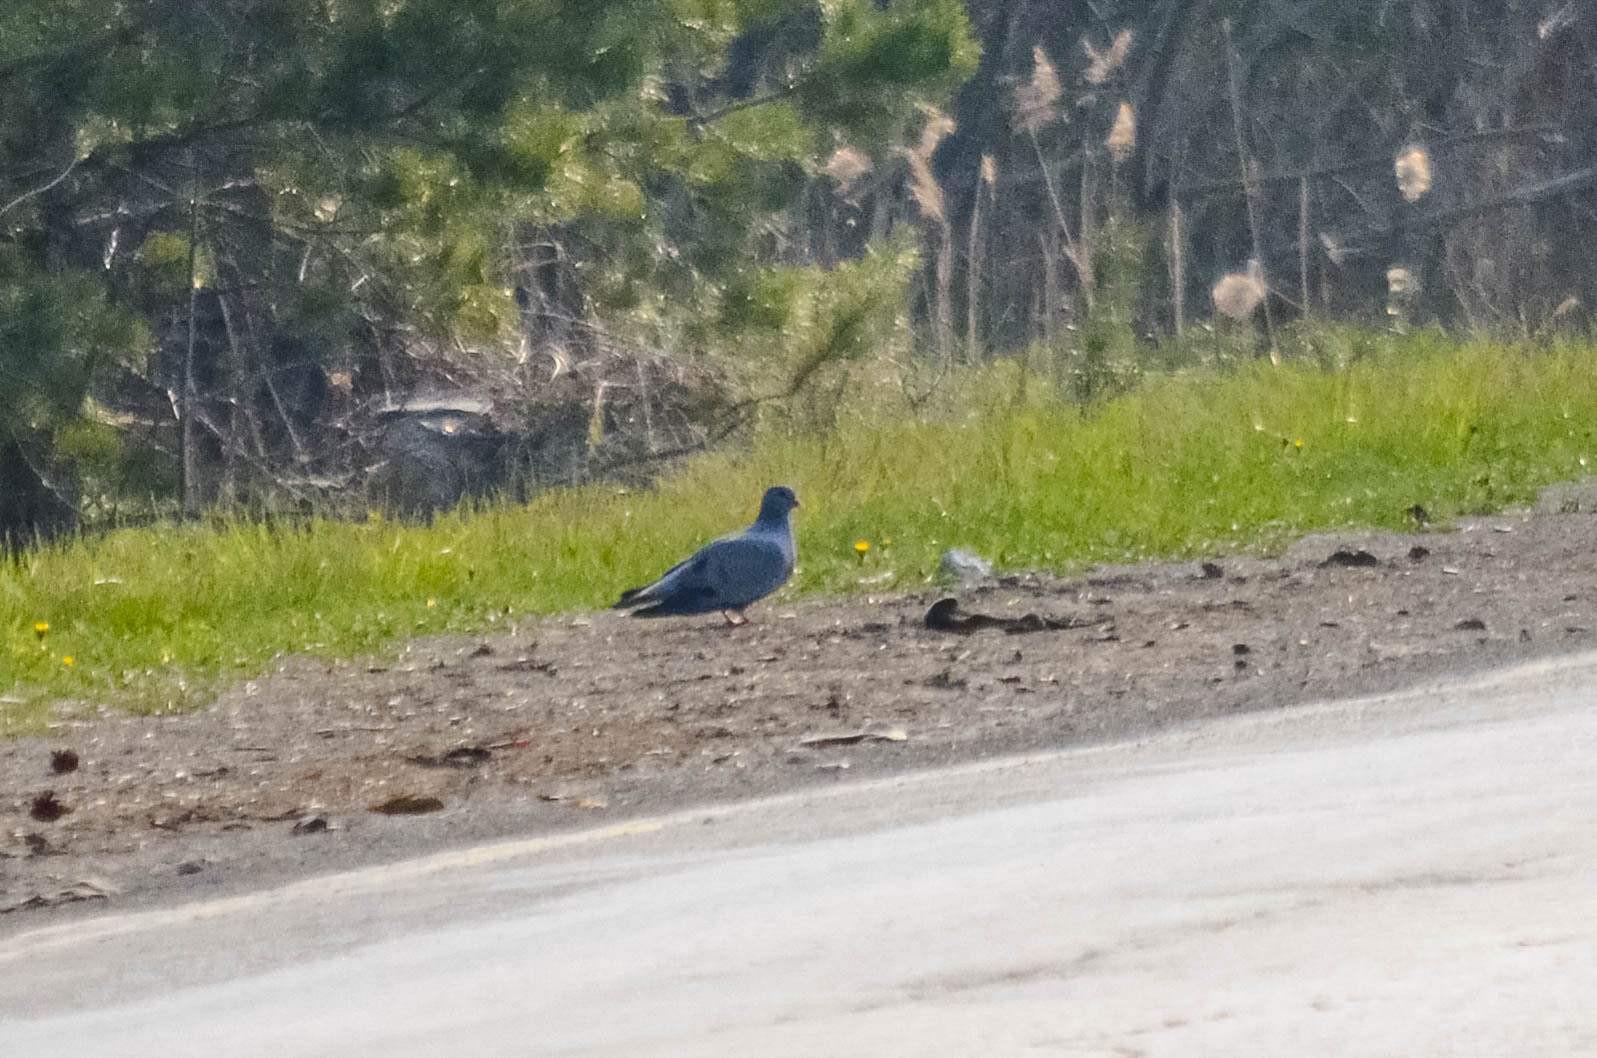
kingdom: Animalia
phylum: Chordata
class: Aves
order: Columbiformes
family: Columbidae
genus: Columba
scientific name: Columba oenas
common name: Stock dove
